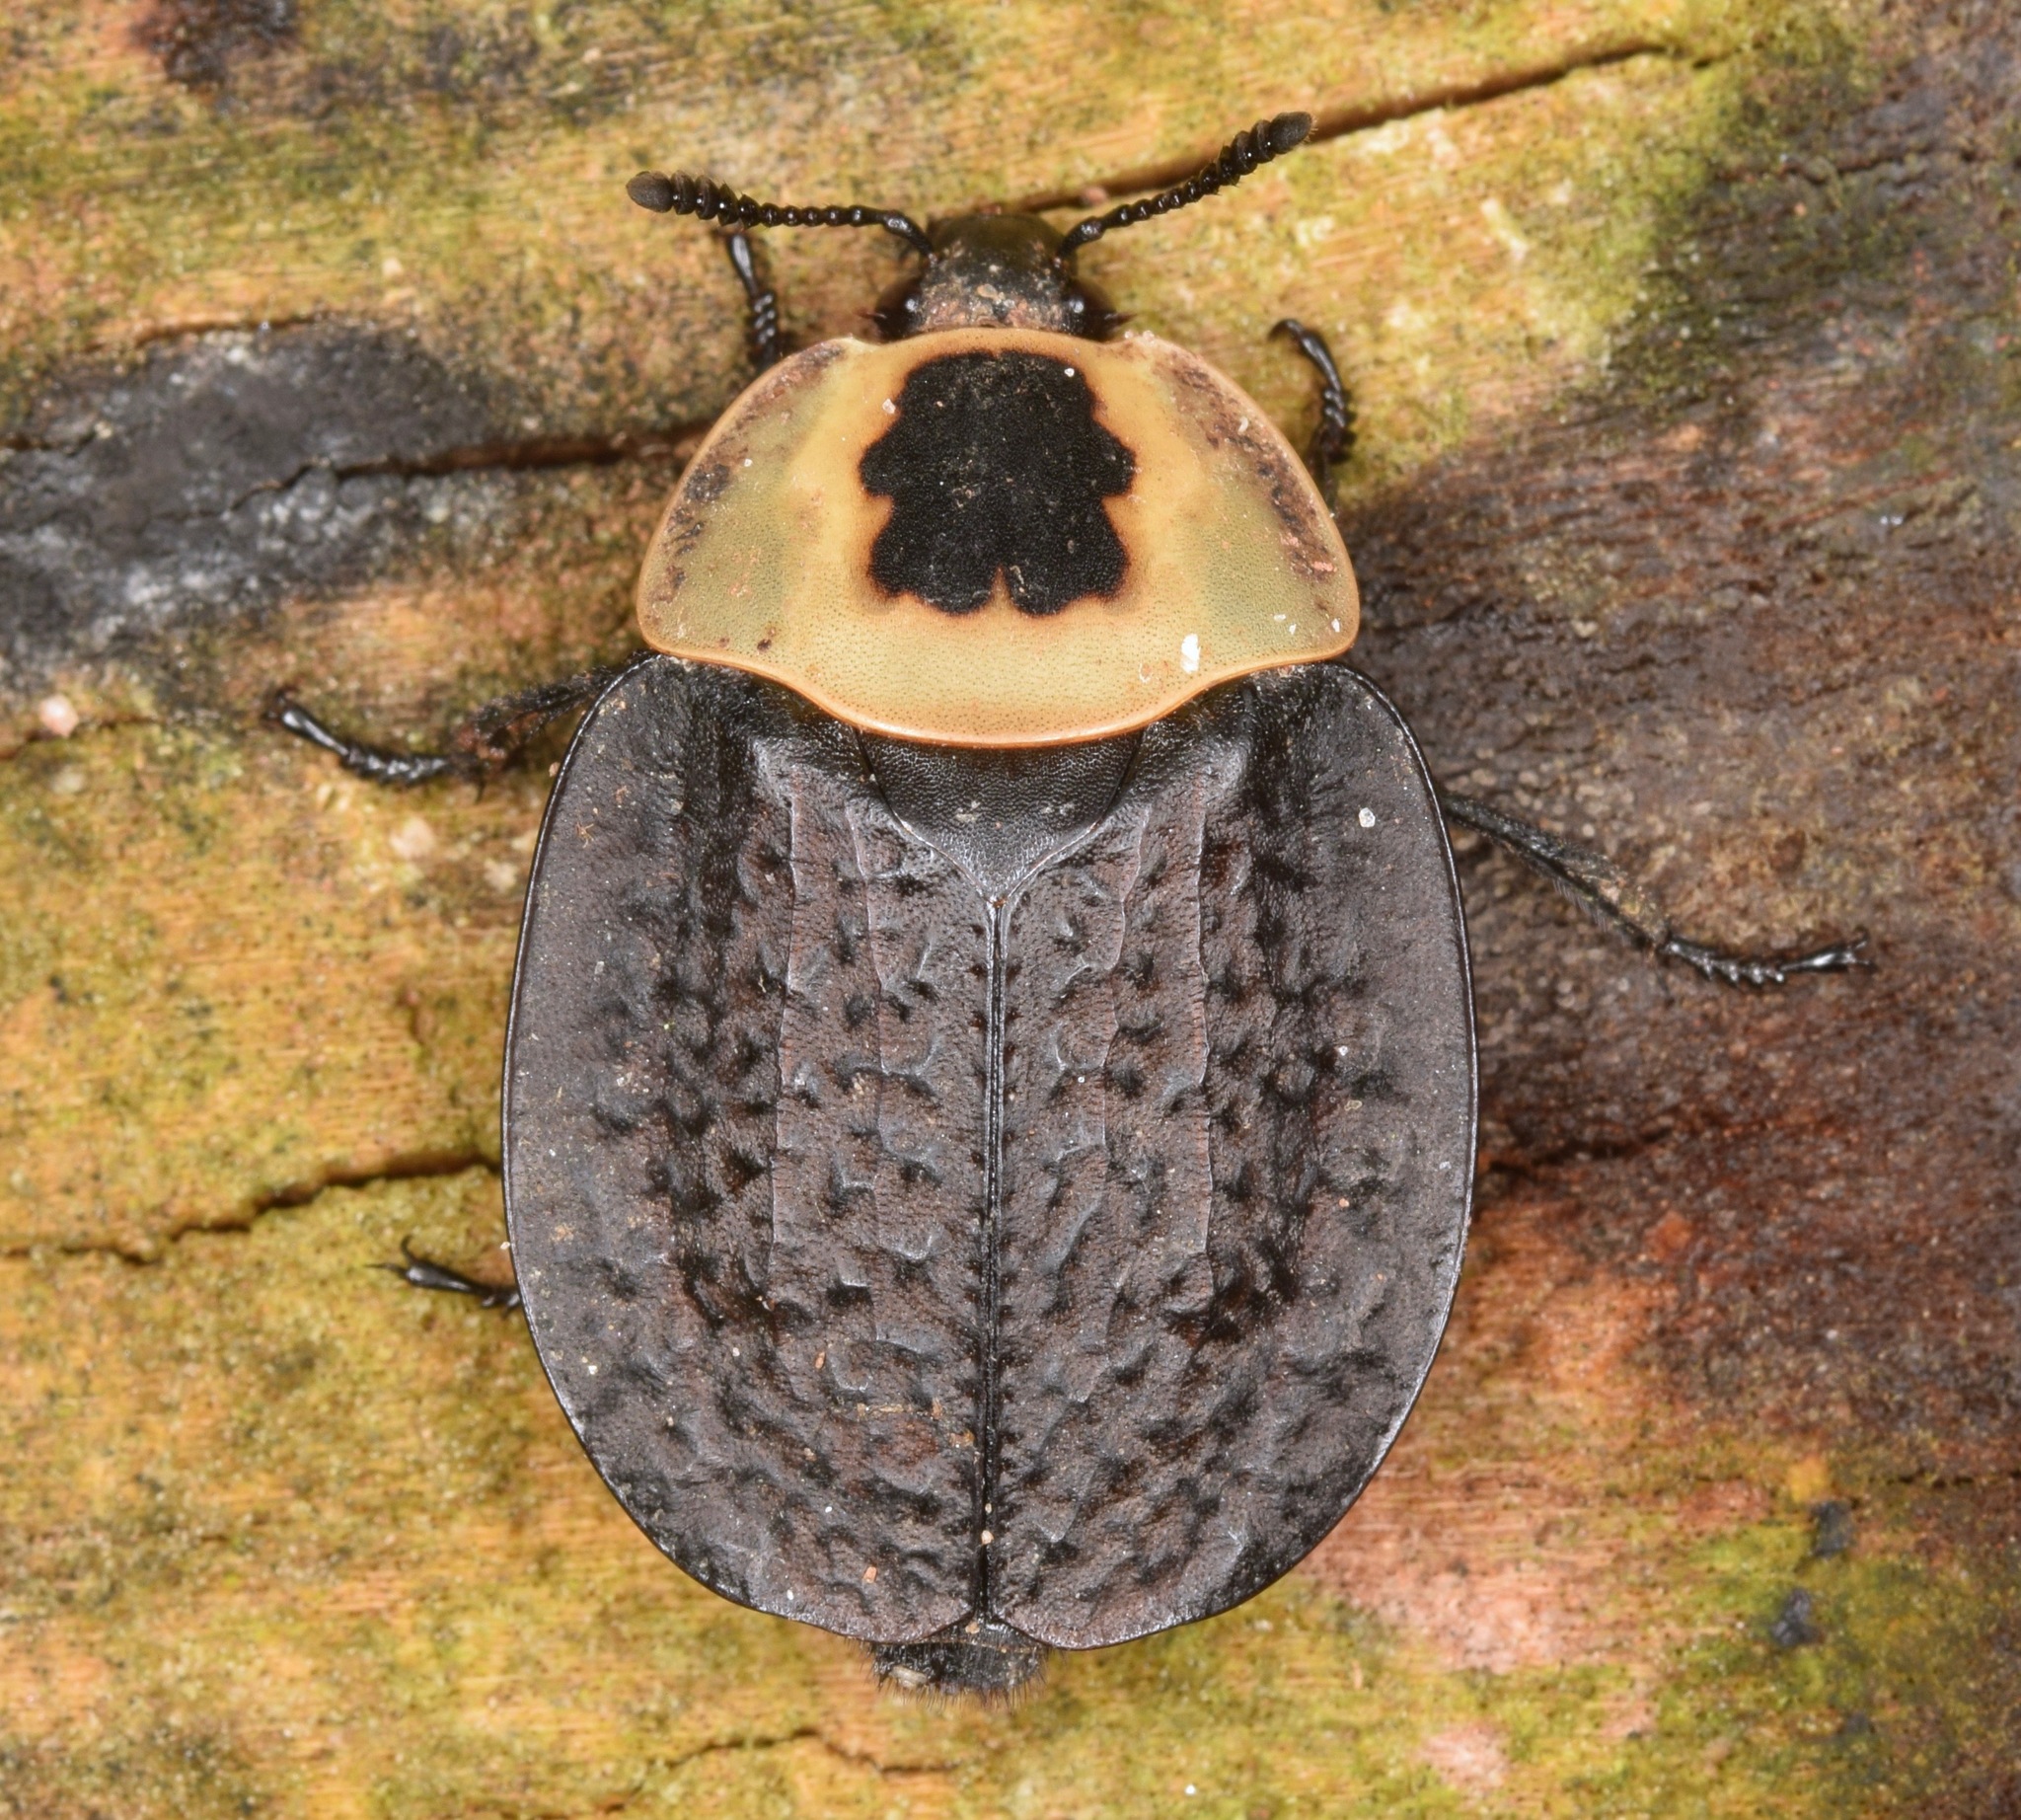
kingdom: Animalia
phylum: Arthropoda
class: Insecta
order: Coleoptera
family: Staphylinidae
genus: Necrophila
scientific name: Necrophila americana
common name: American carrion beetle
